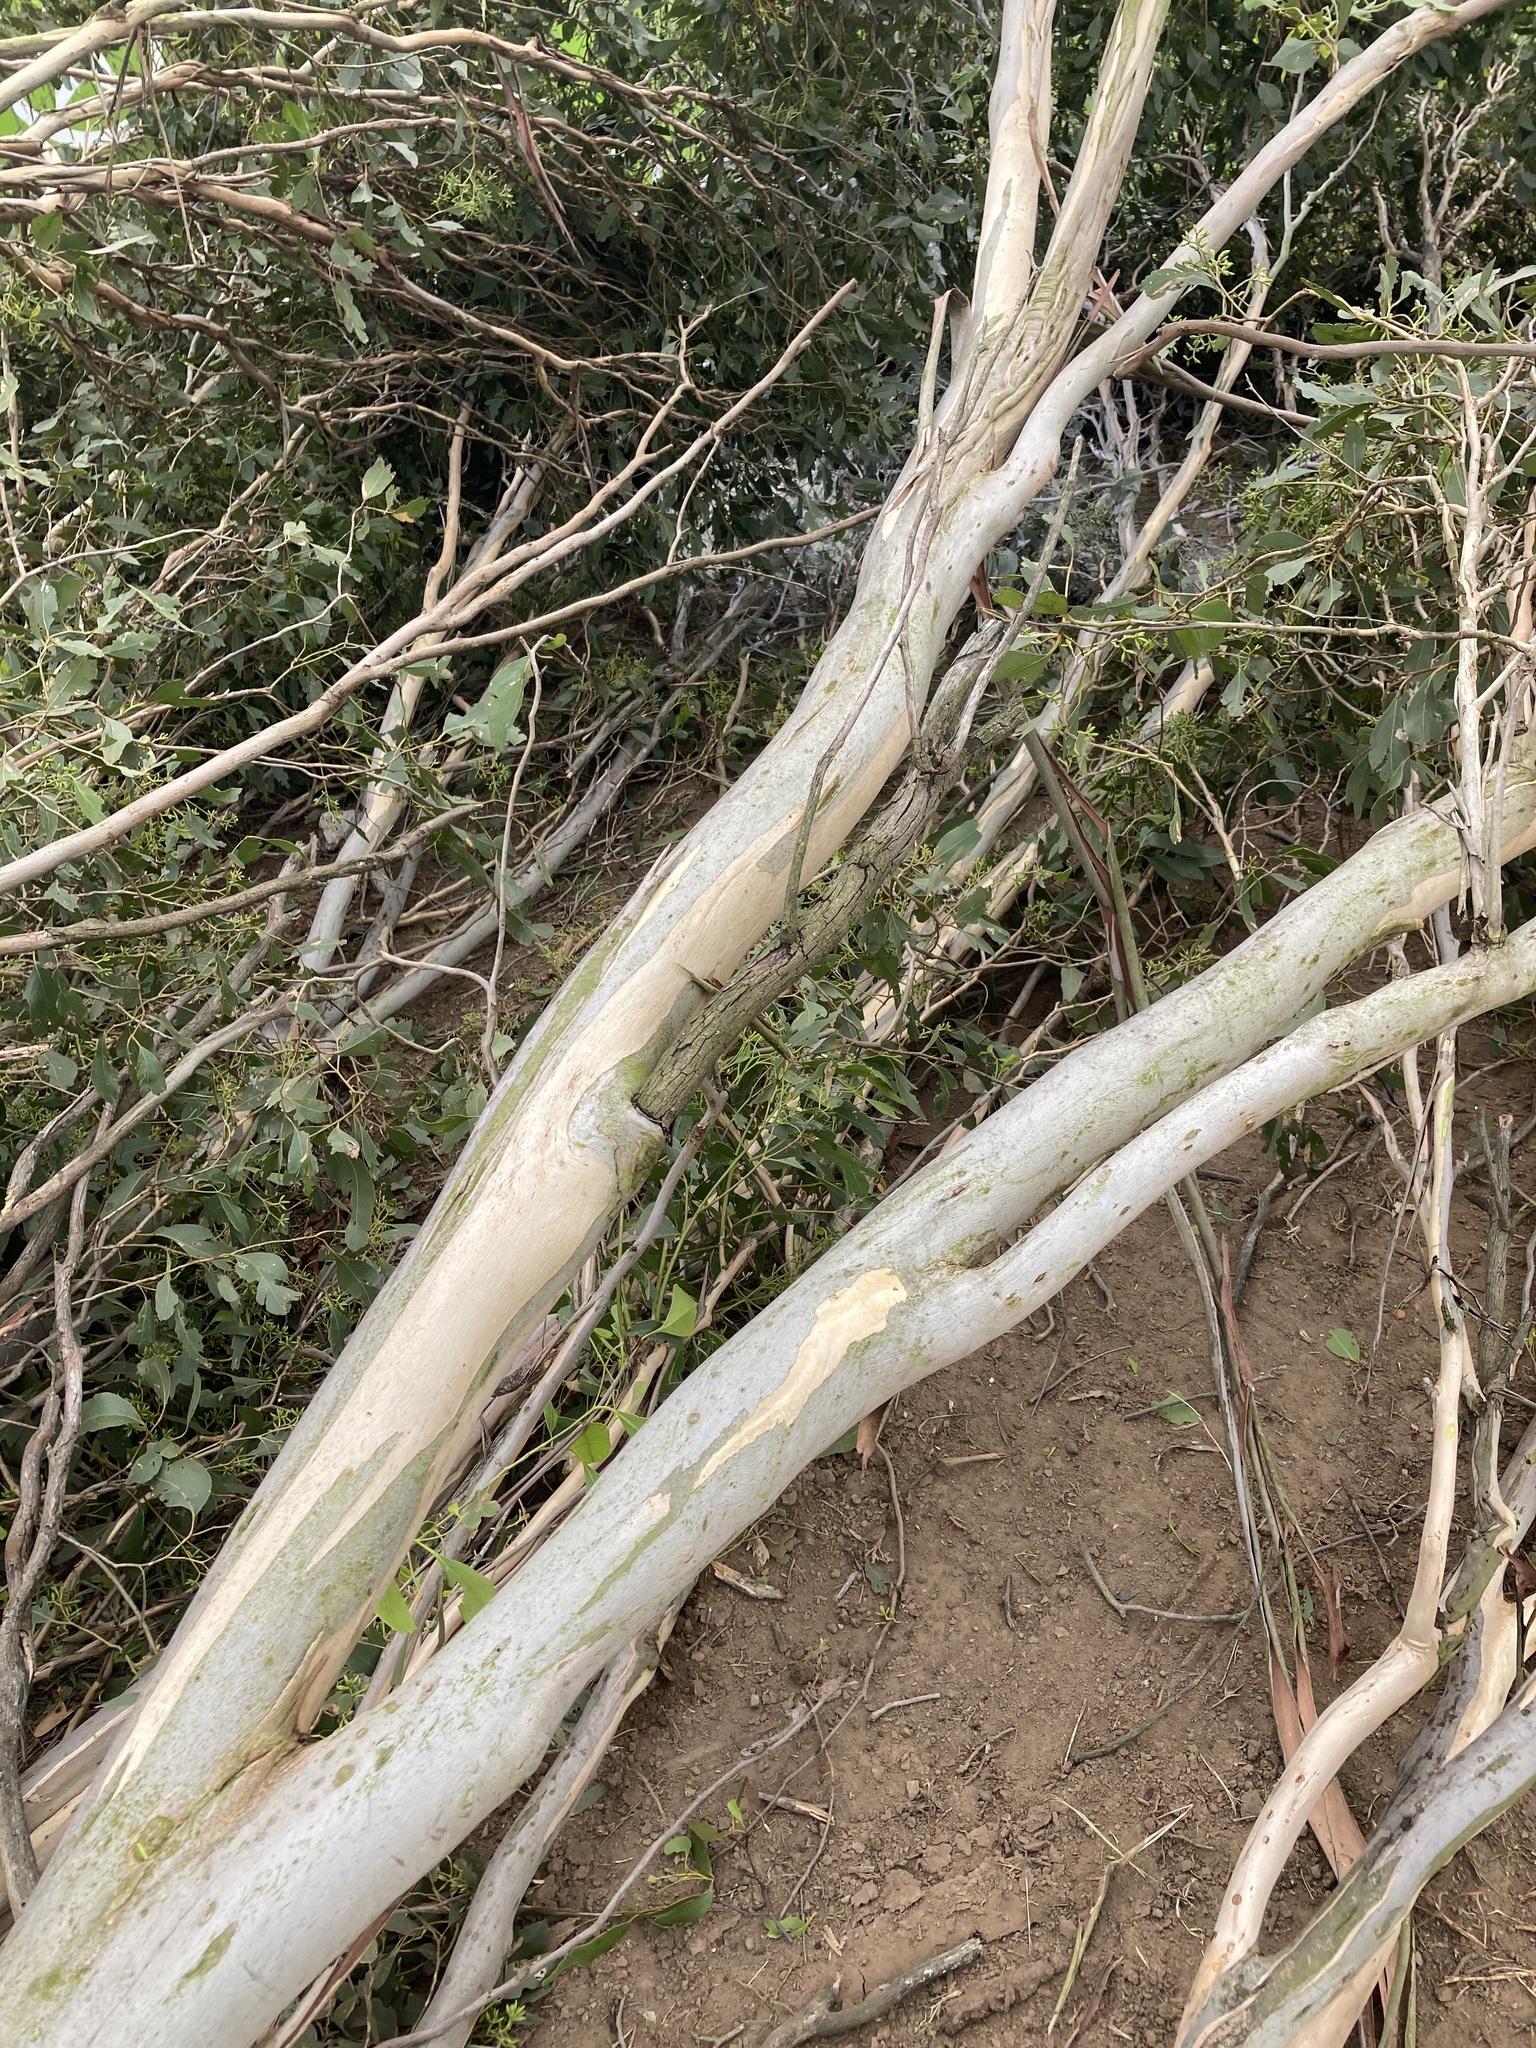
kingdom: Plantae
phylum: Tracheophyta
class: Magnoliopsida
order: Myrtales
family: Myrtaceae
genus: Eucalyptus
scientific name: Eucalyptus moluccana
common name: Grey-box
